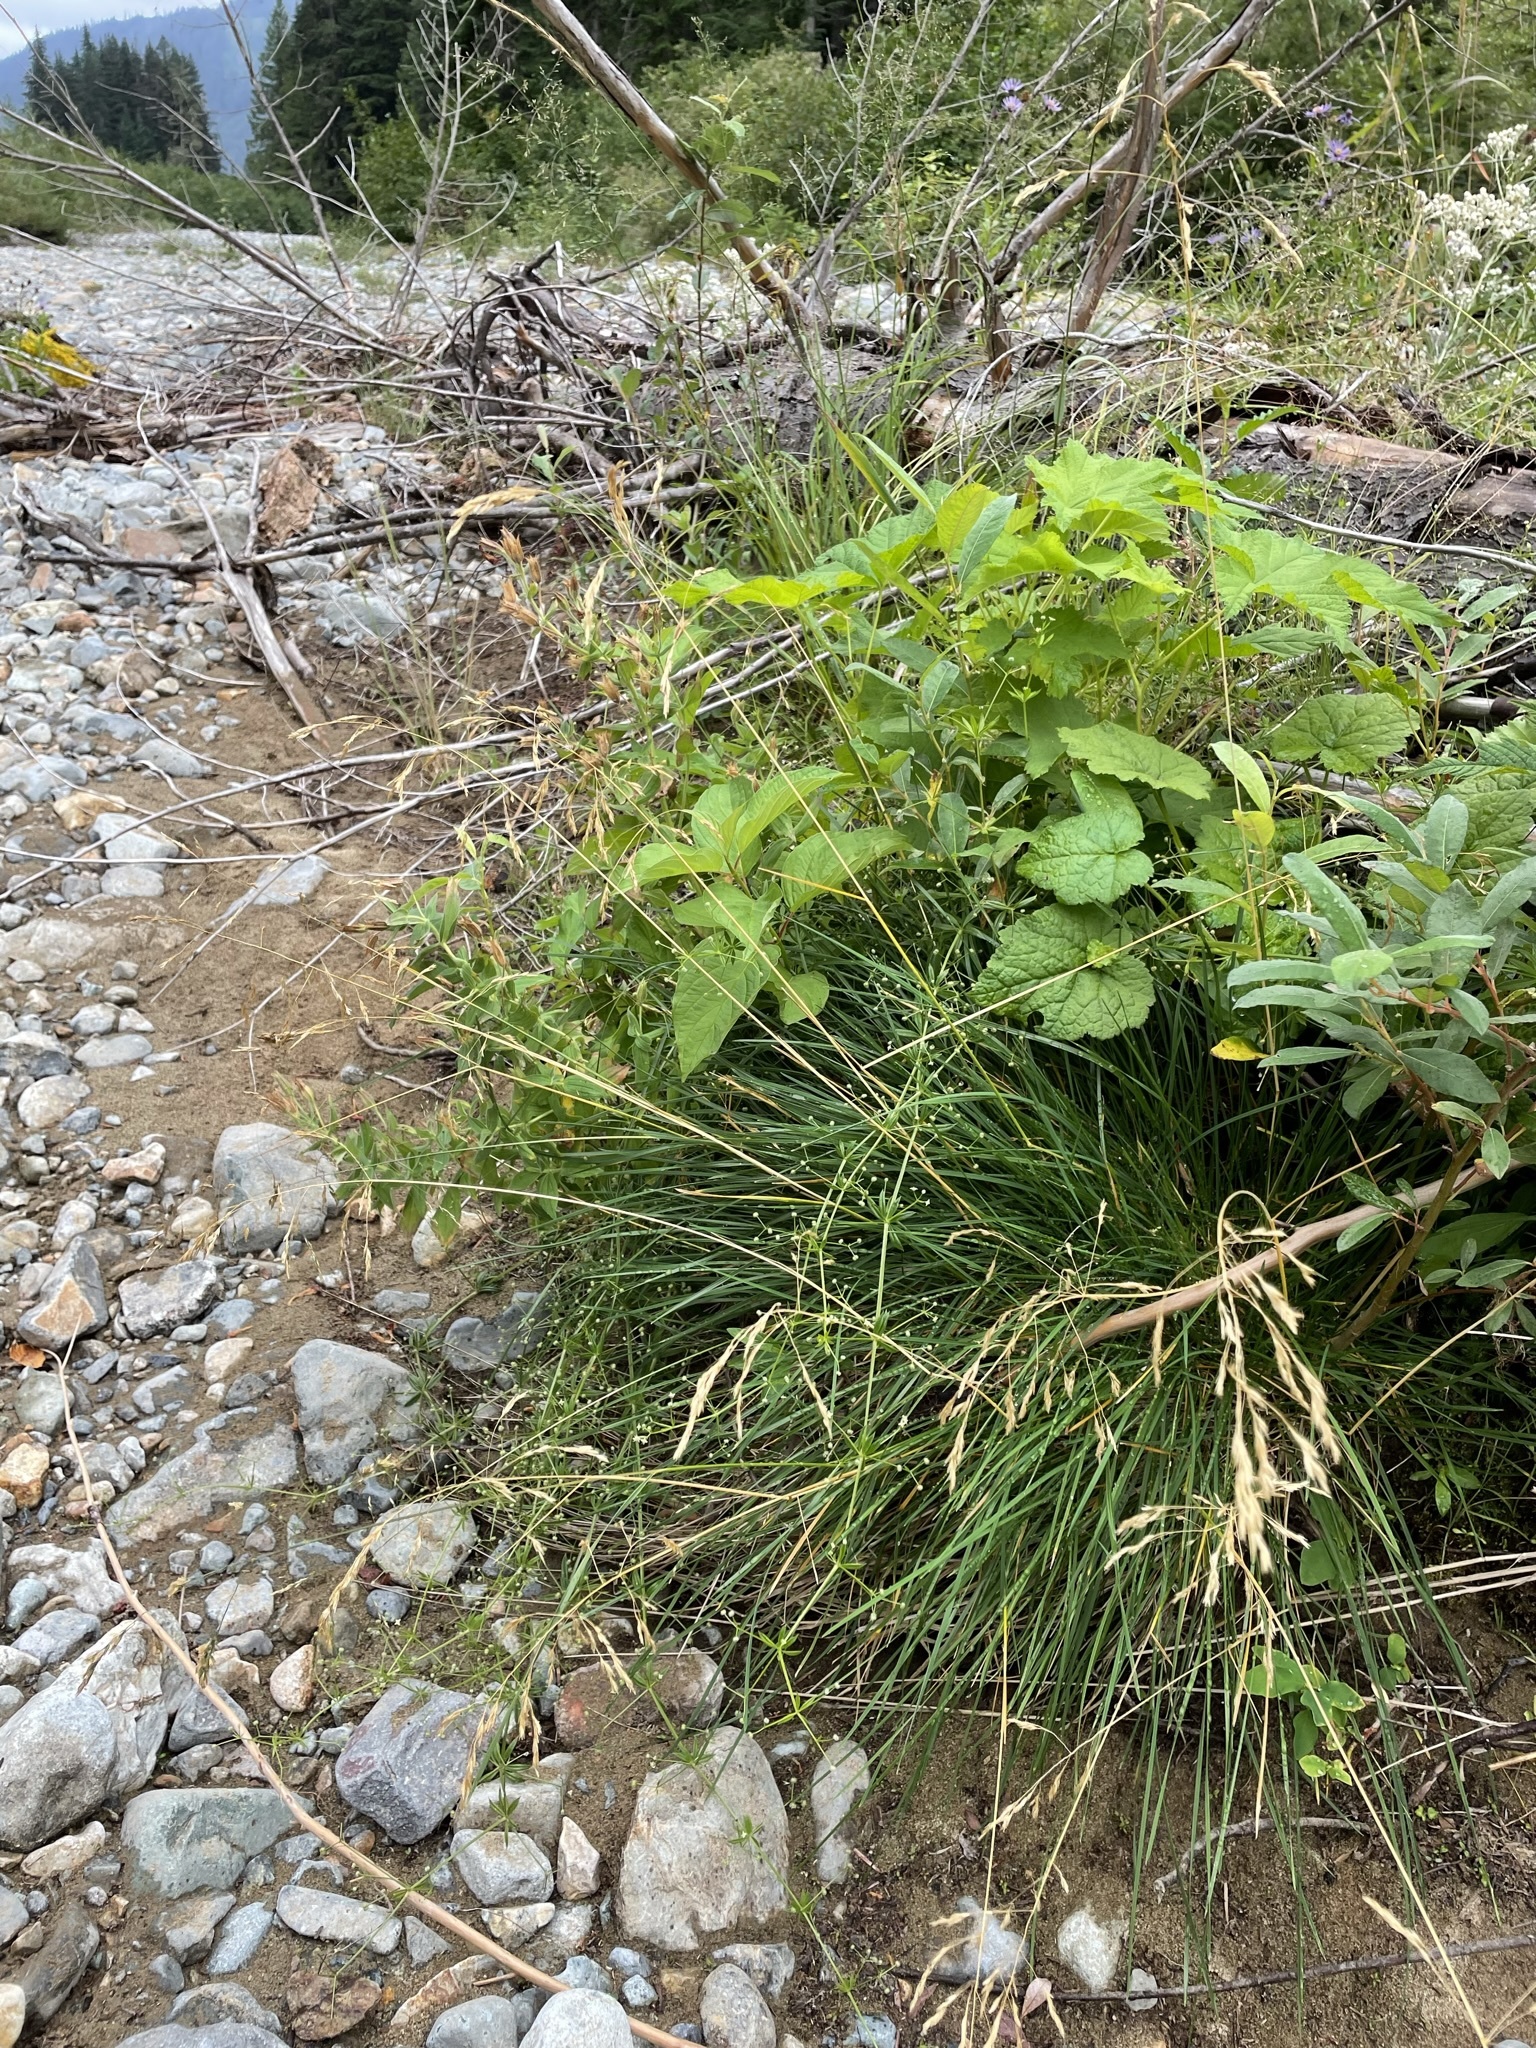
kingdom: Plantae
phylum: Tracheophyta
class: Liliopsida
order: Poales
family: Poaceae
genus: Deschampsia
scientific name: Deschampsia cespitosa
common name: Tufted hair-grass
